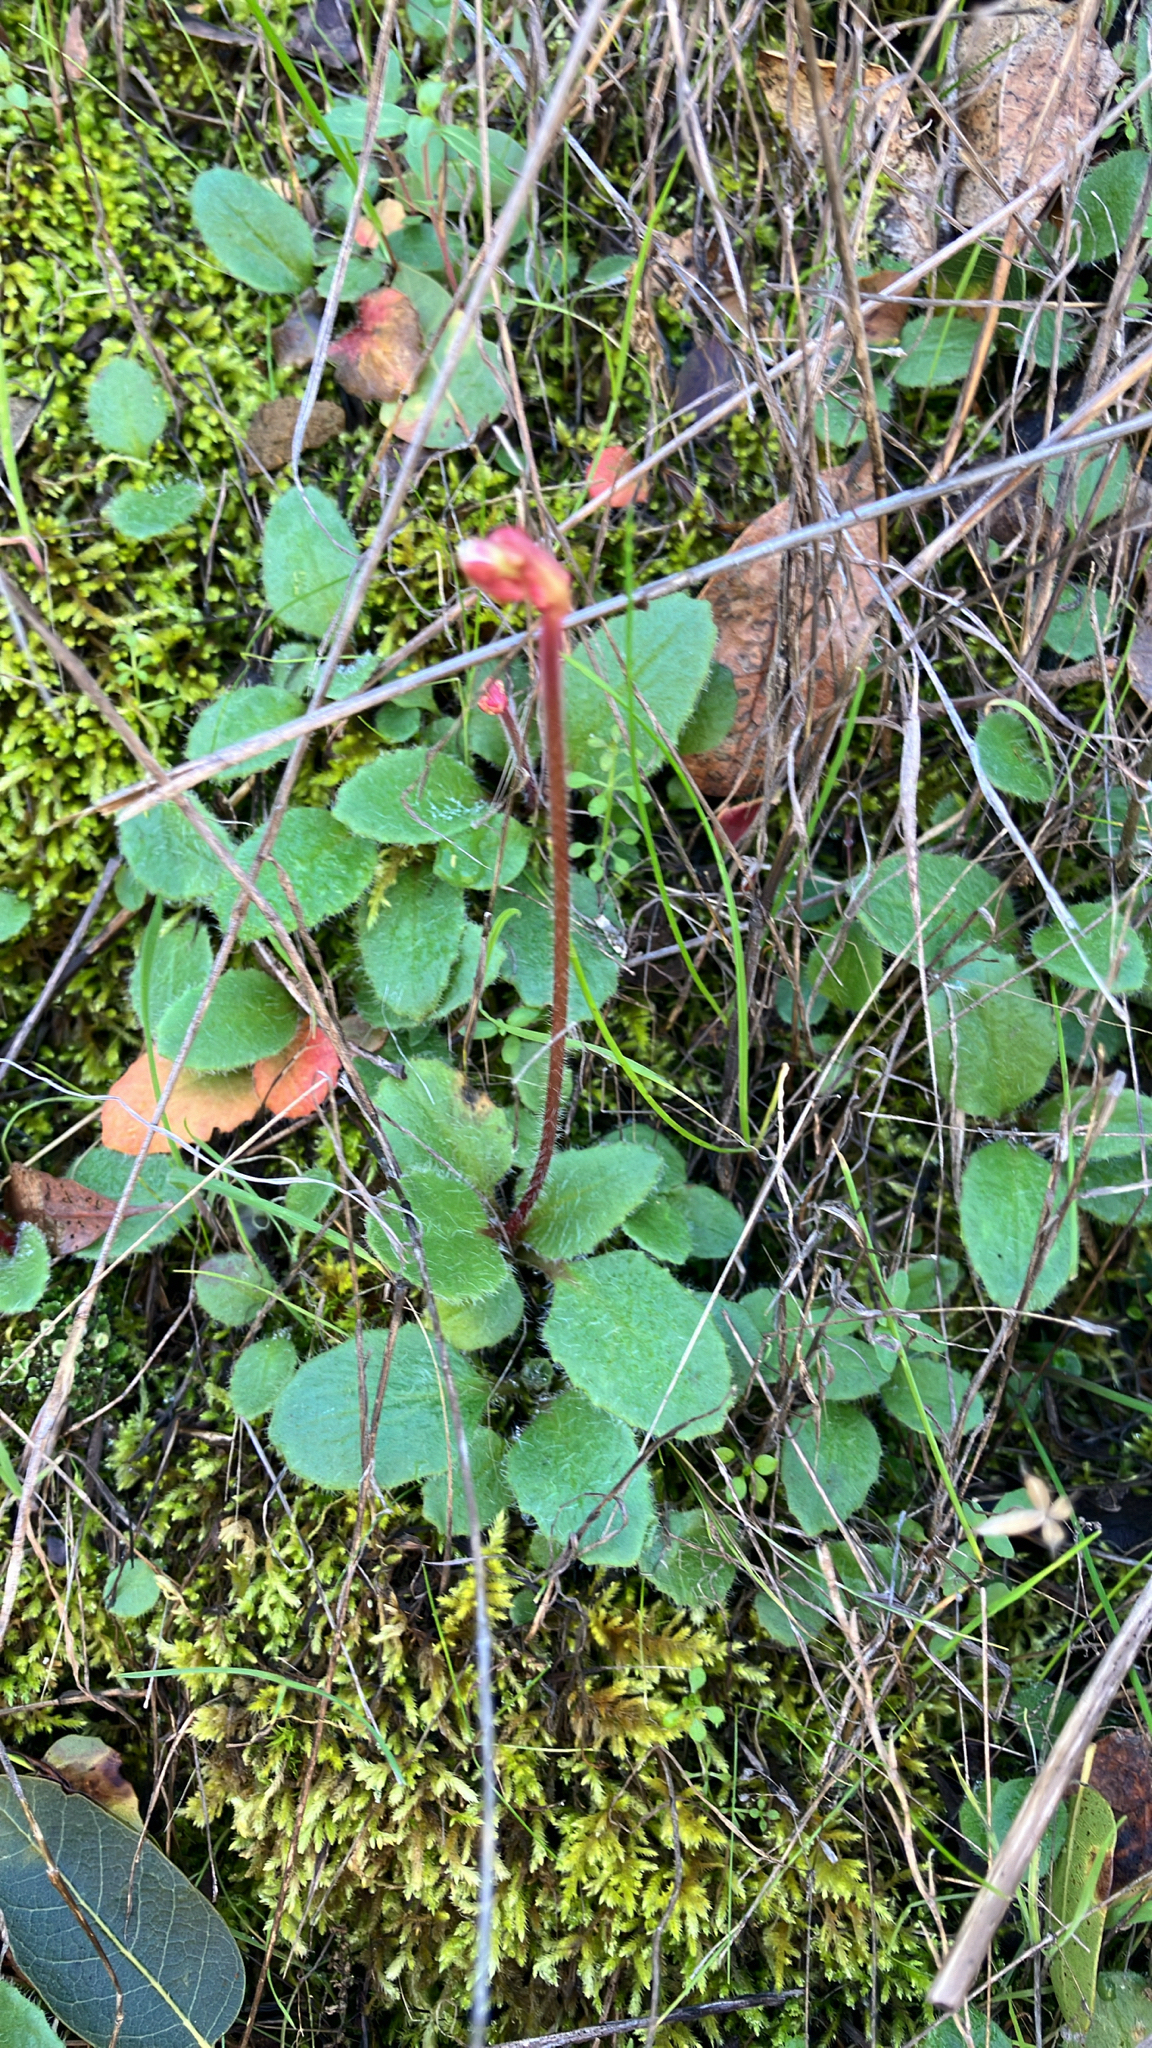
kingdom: Plantae
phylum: Tracheophyta
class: Magnoliopsida
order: Saxifragales
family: Saxifragaceae
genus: Micranthes
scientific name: Micranthes californica
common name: California saxifrage
